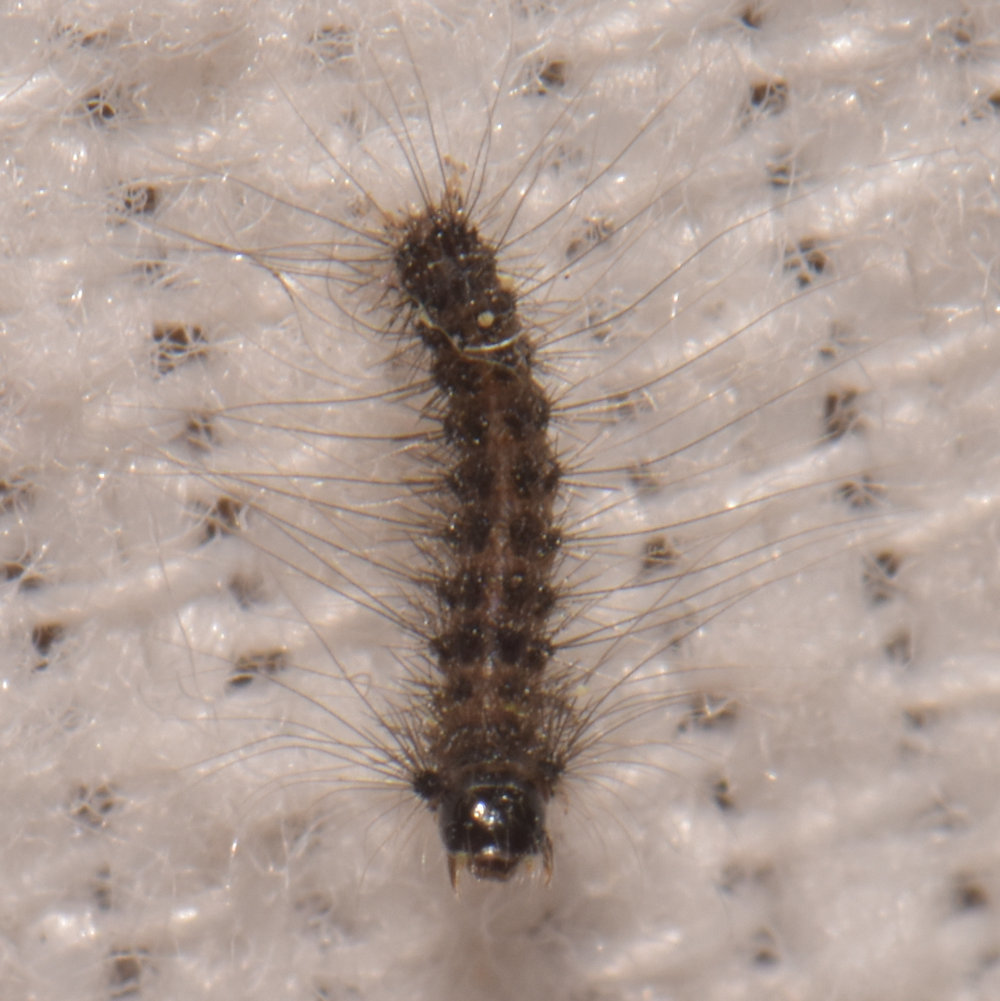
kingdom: Animalia
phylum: Arthropoda
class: Insecta
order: Lepidoptera
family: Erebidae
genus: Lymantria
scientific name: Lymantria dispar
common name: Gypsy moth
